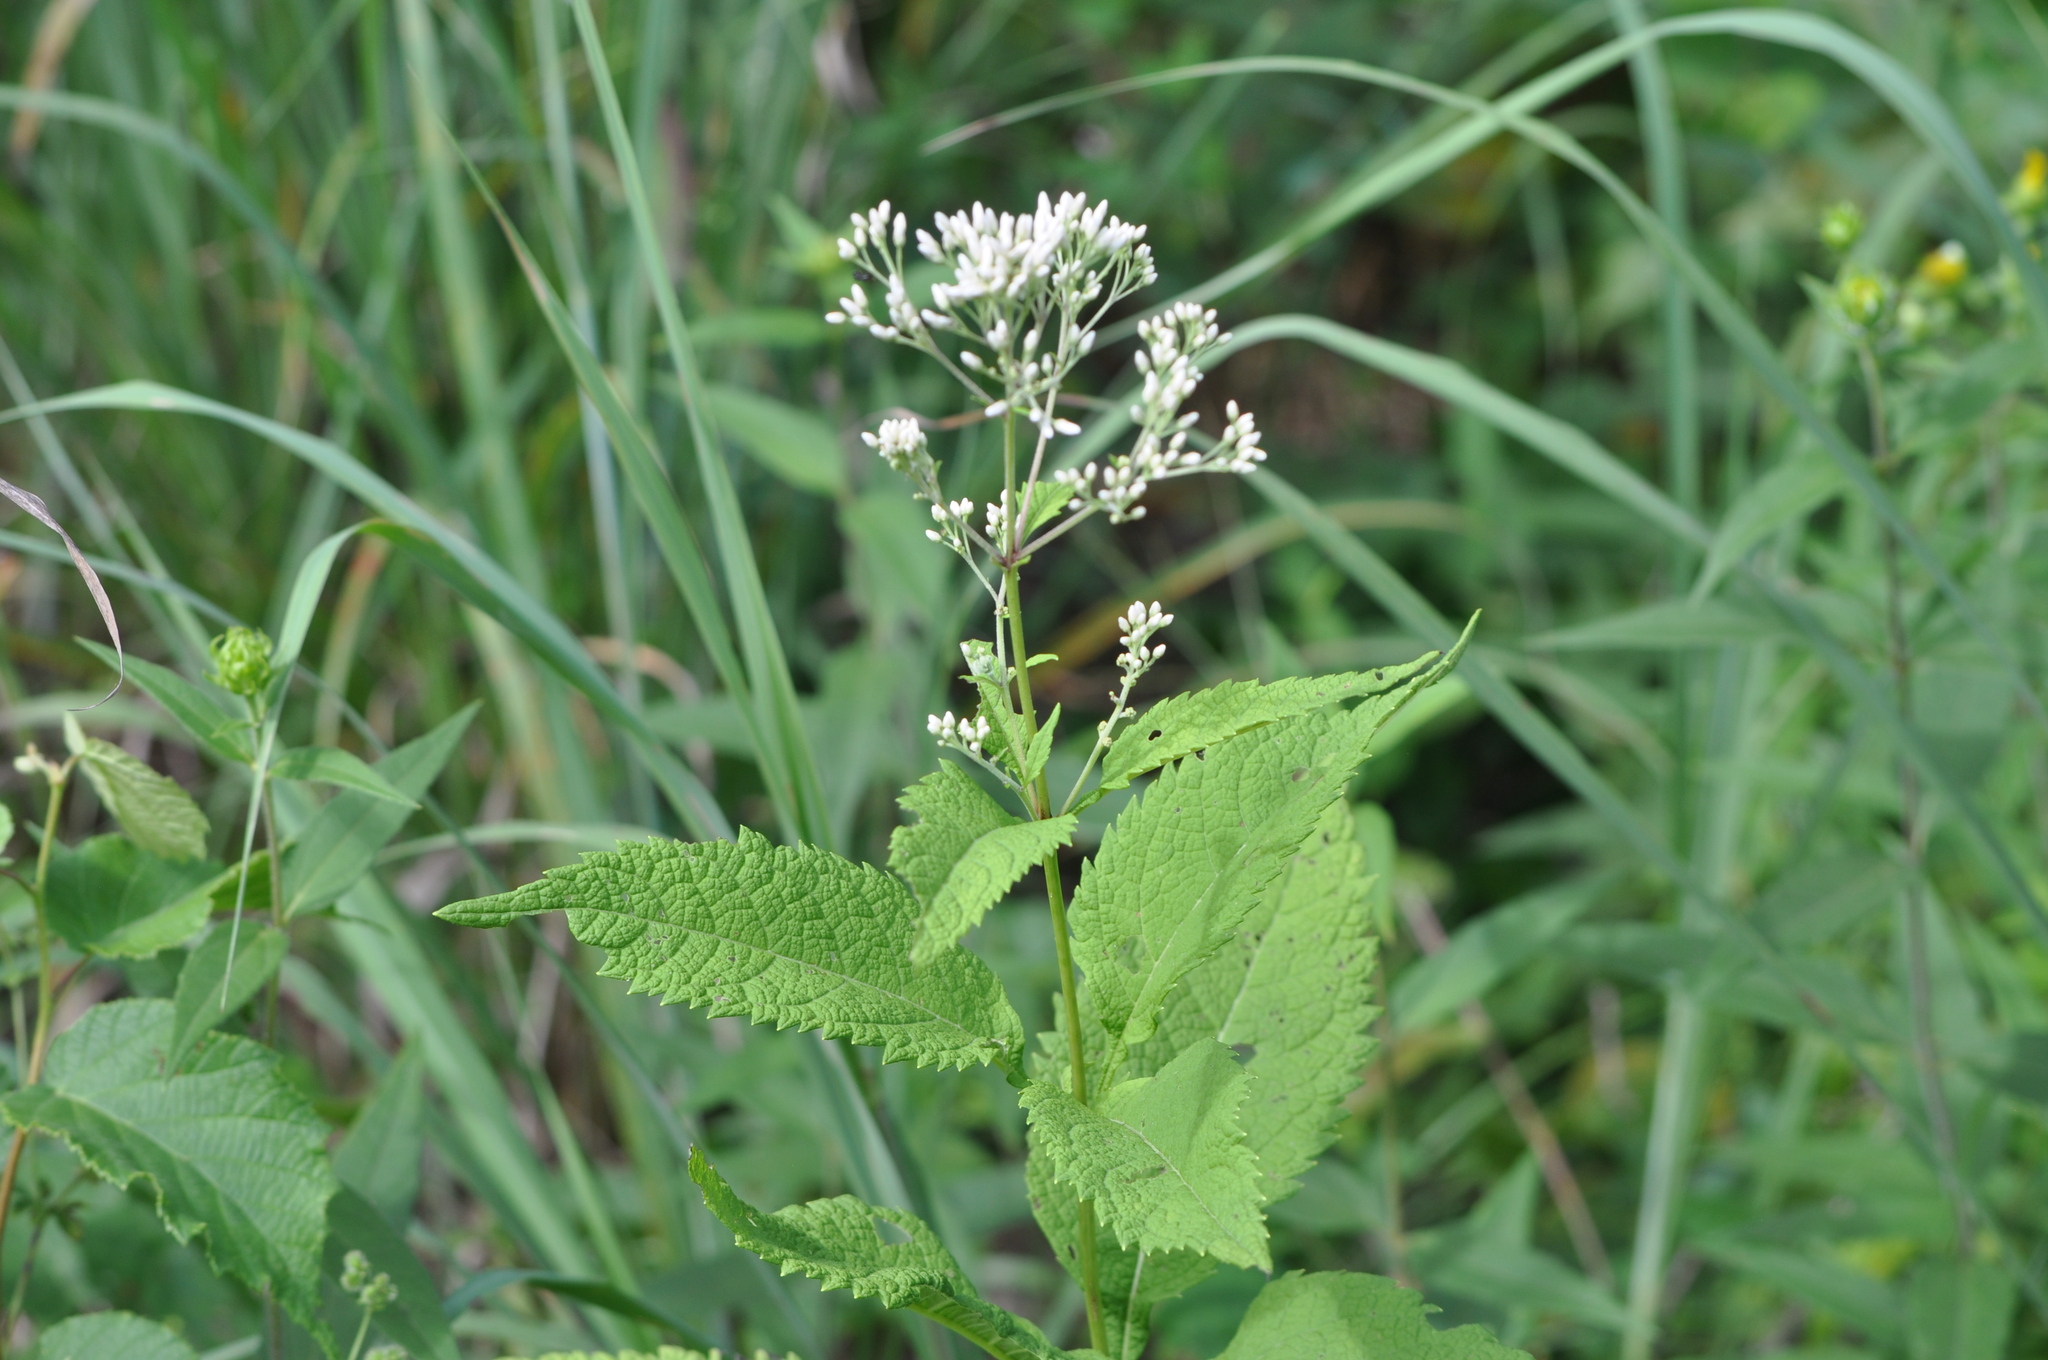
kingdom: Plantae
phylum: Tracheophyta
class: Magnoliopsida
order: Asterales
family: Asteraceae
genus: Eutrochium
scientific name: Eutrochium purpureum
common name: Gravelroot
